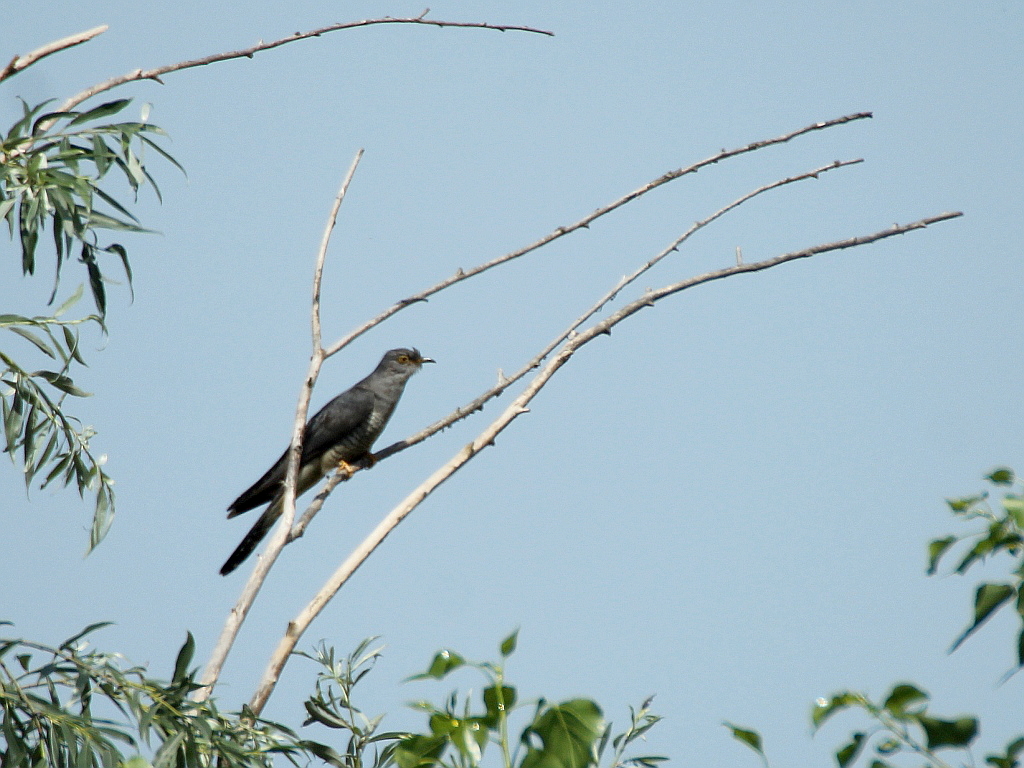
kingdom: Animalia
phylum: Chordata
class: Aves
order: Cuculiformes
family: Cuculidae
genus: Cuculus
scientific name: Cuculus canorus
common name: Common cuckoo
